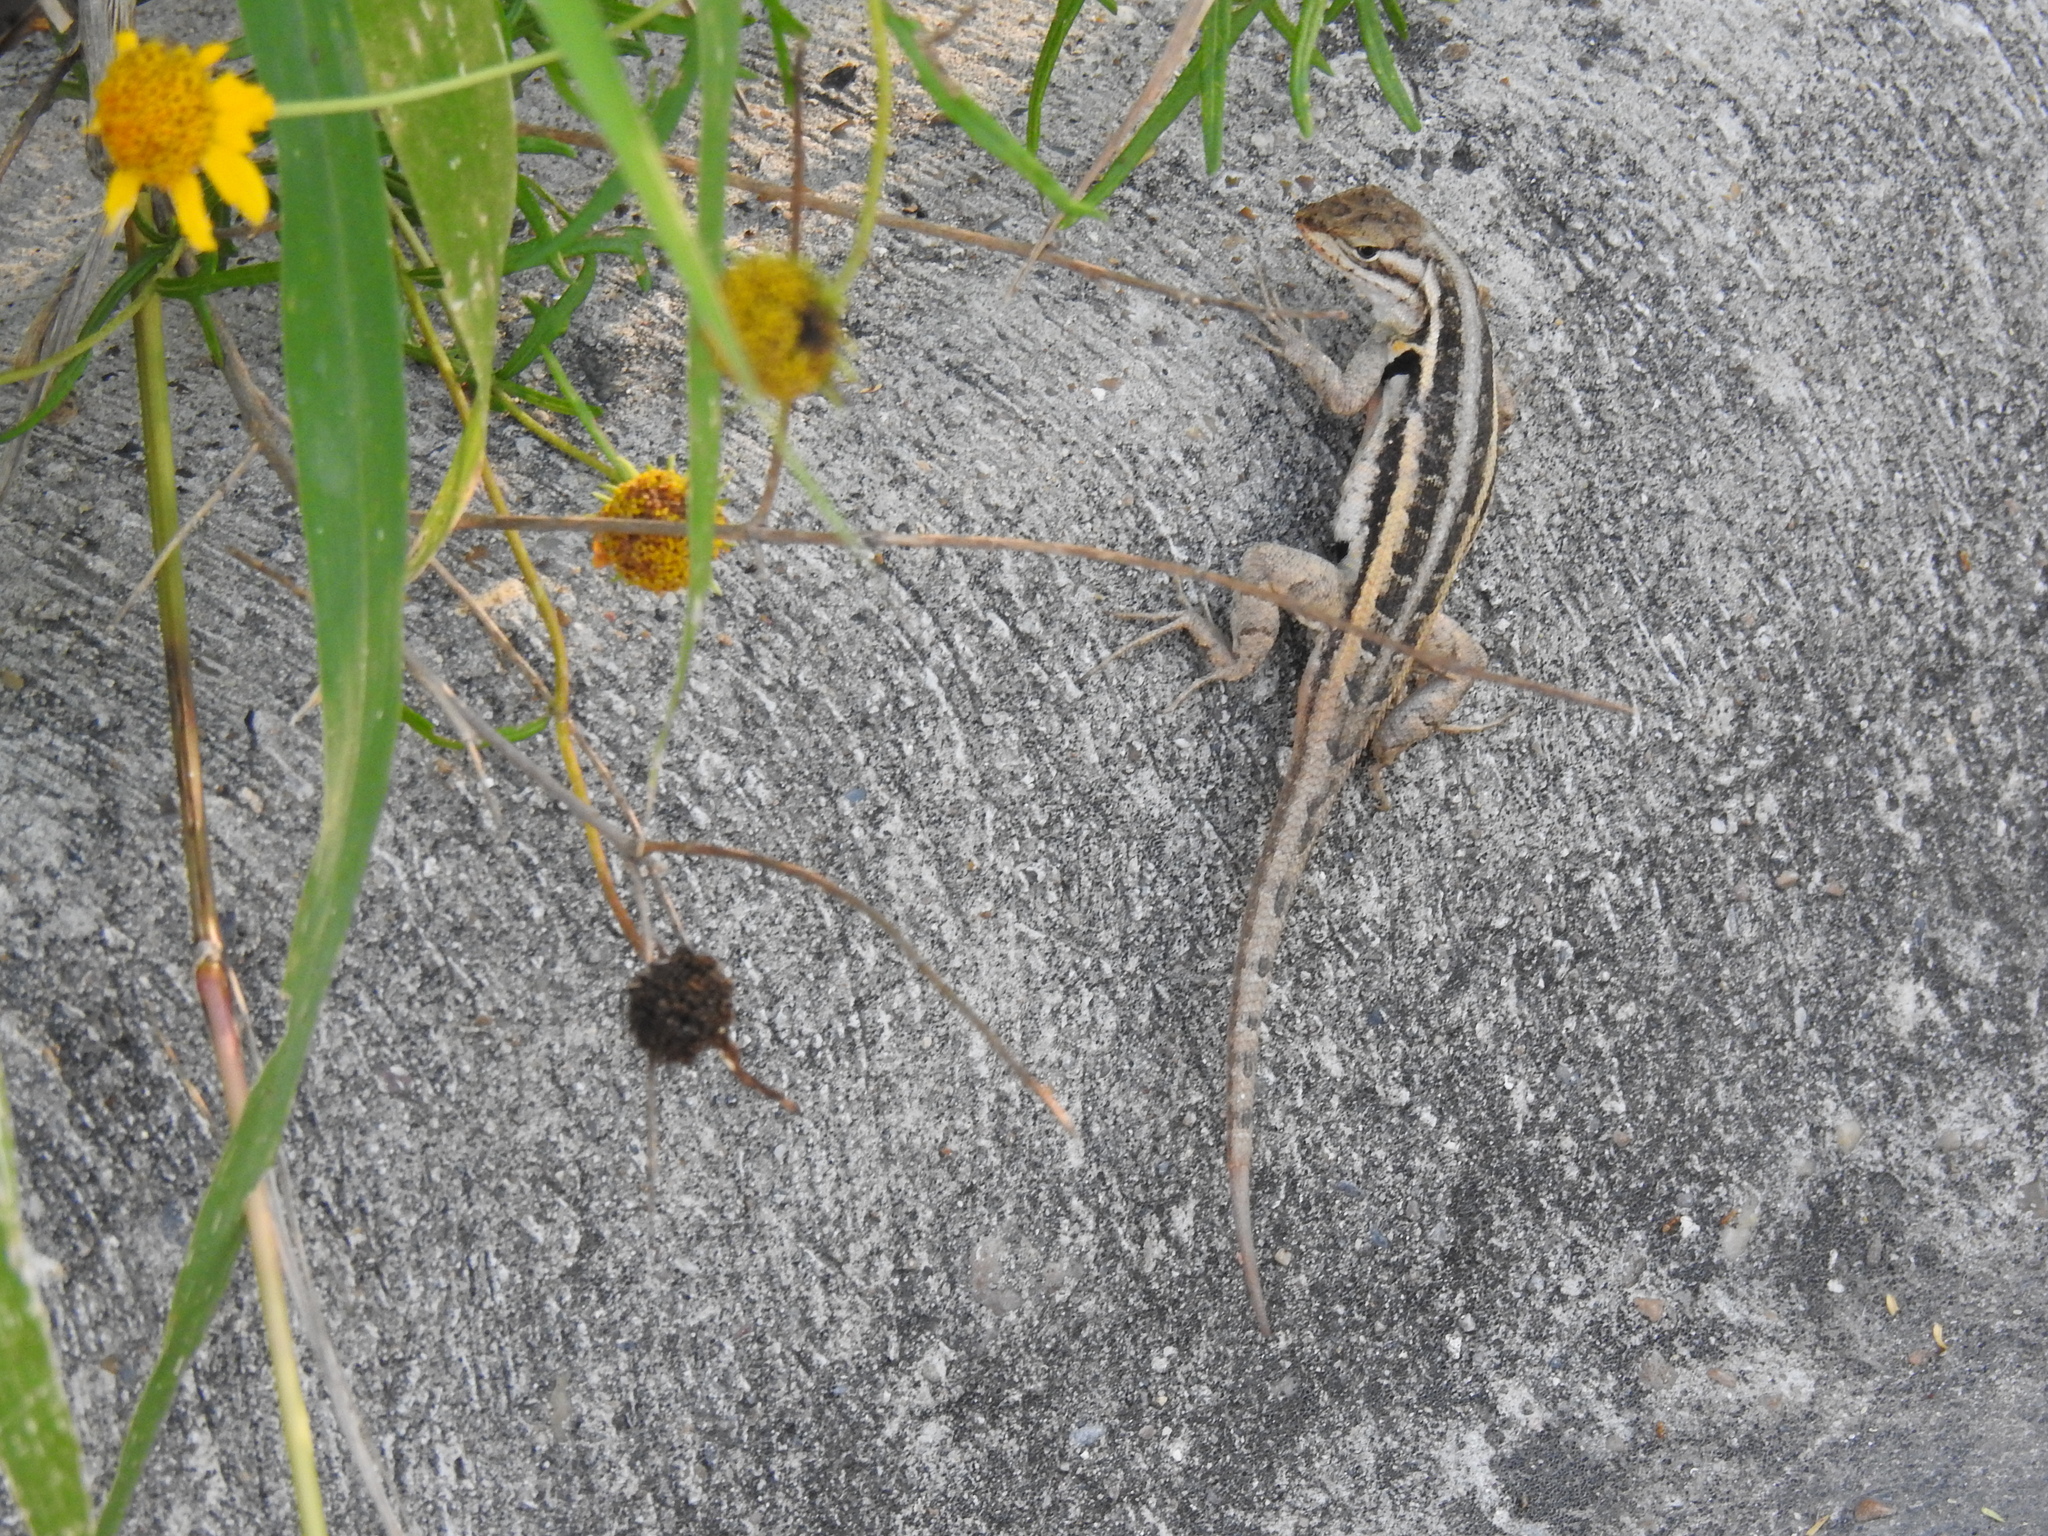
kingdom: Animalia
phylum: Chordata
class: Squamata
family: Phrynosomatidae
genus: Sceloporus
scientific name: Sceloporus variabilis
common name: Rosebelly lizard
